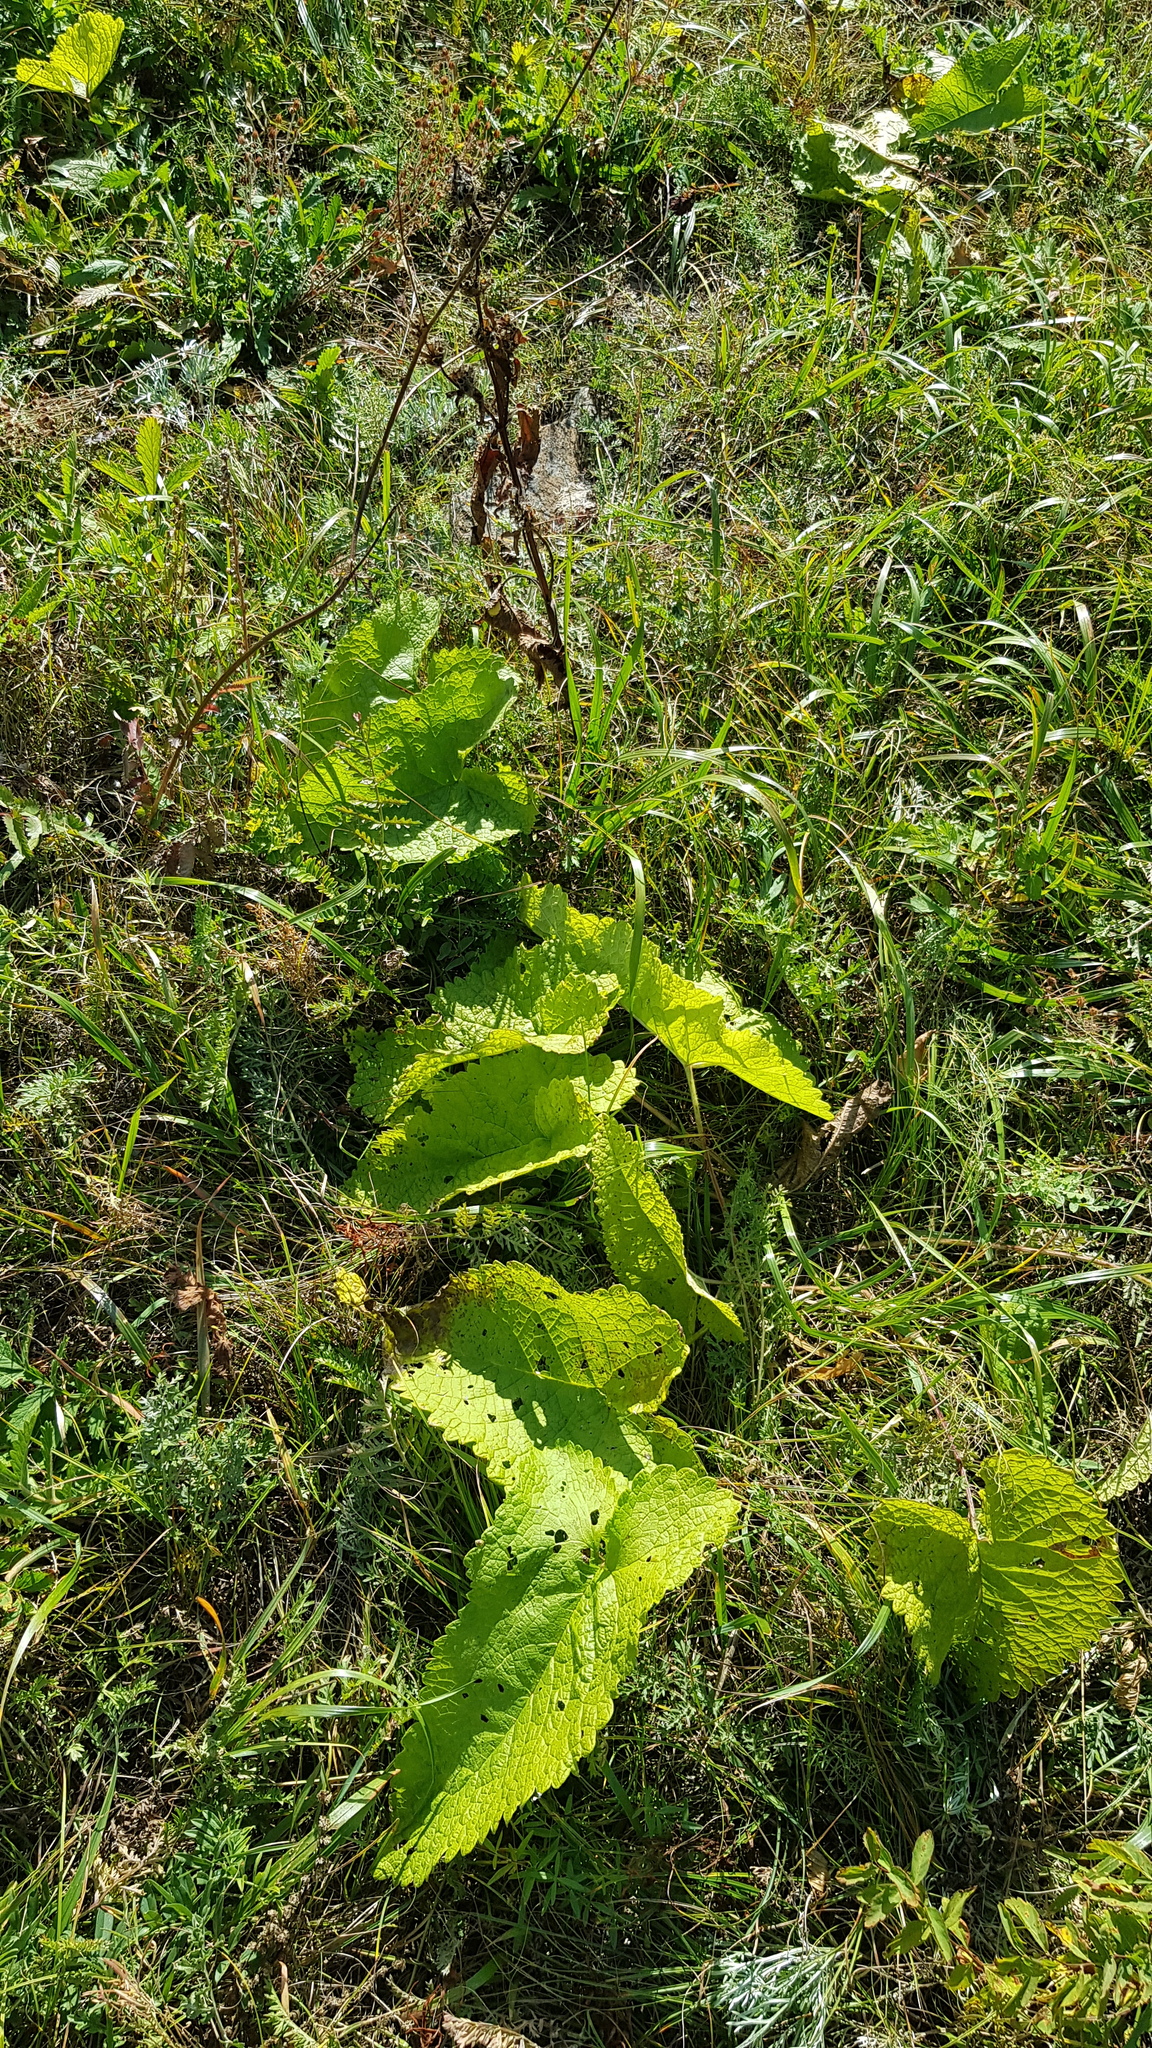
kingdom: Plantae
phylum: Tracheophyta
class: Magnoliopsida
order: Lamiales
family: Lamiaceae
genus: Phlomoides
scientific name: Phlomoides tuberosa
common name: Tuberous jerusalem sage
